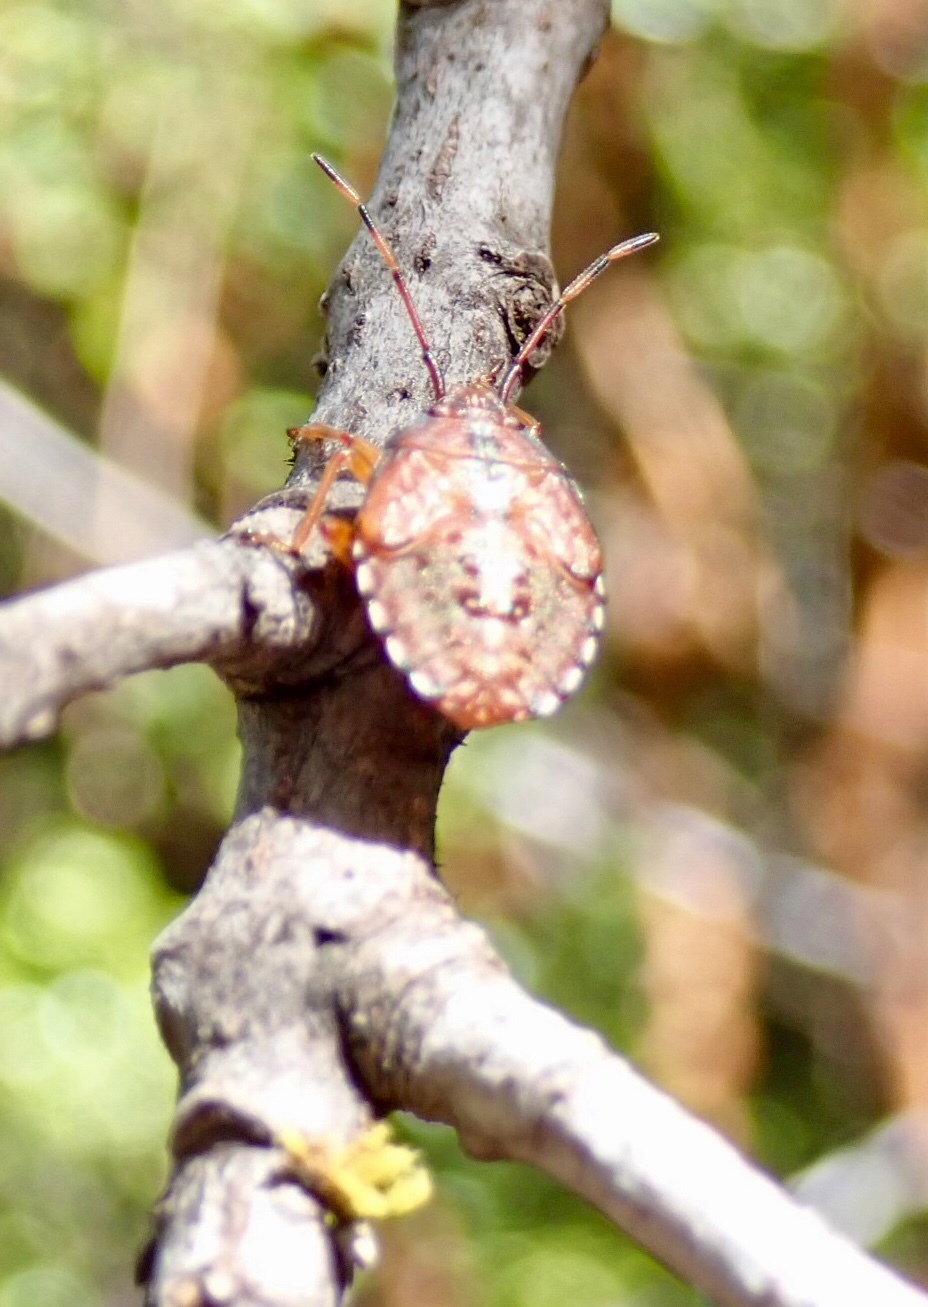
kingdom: Animalia
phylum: Arthropoda
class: Insecta
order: Hemiptera
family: Acanthosomatidae
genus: Planois
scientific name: Planois smaug
